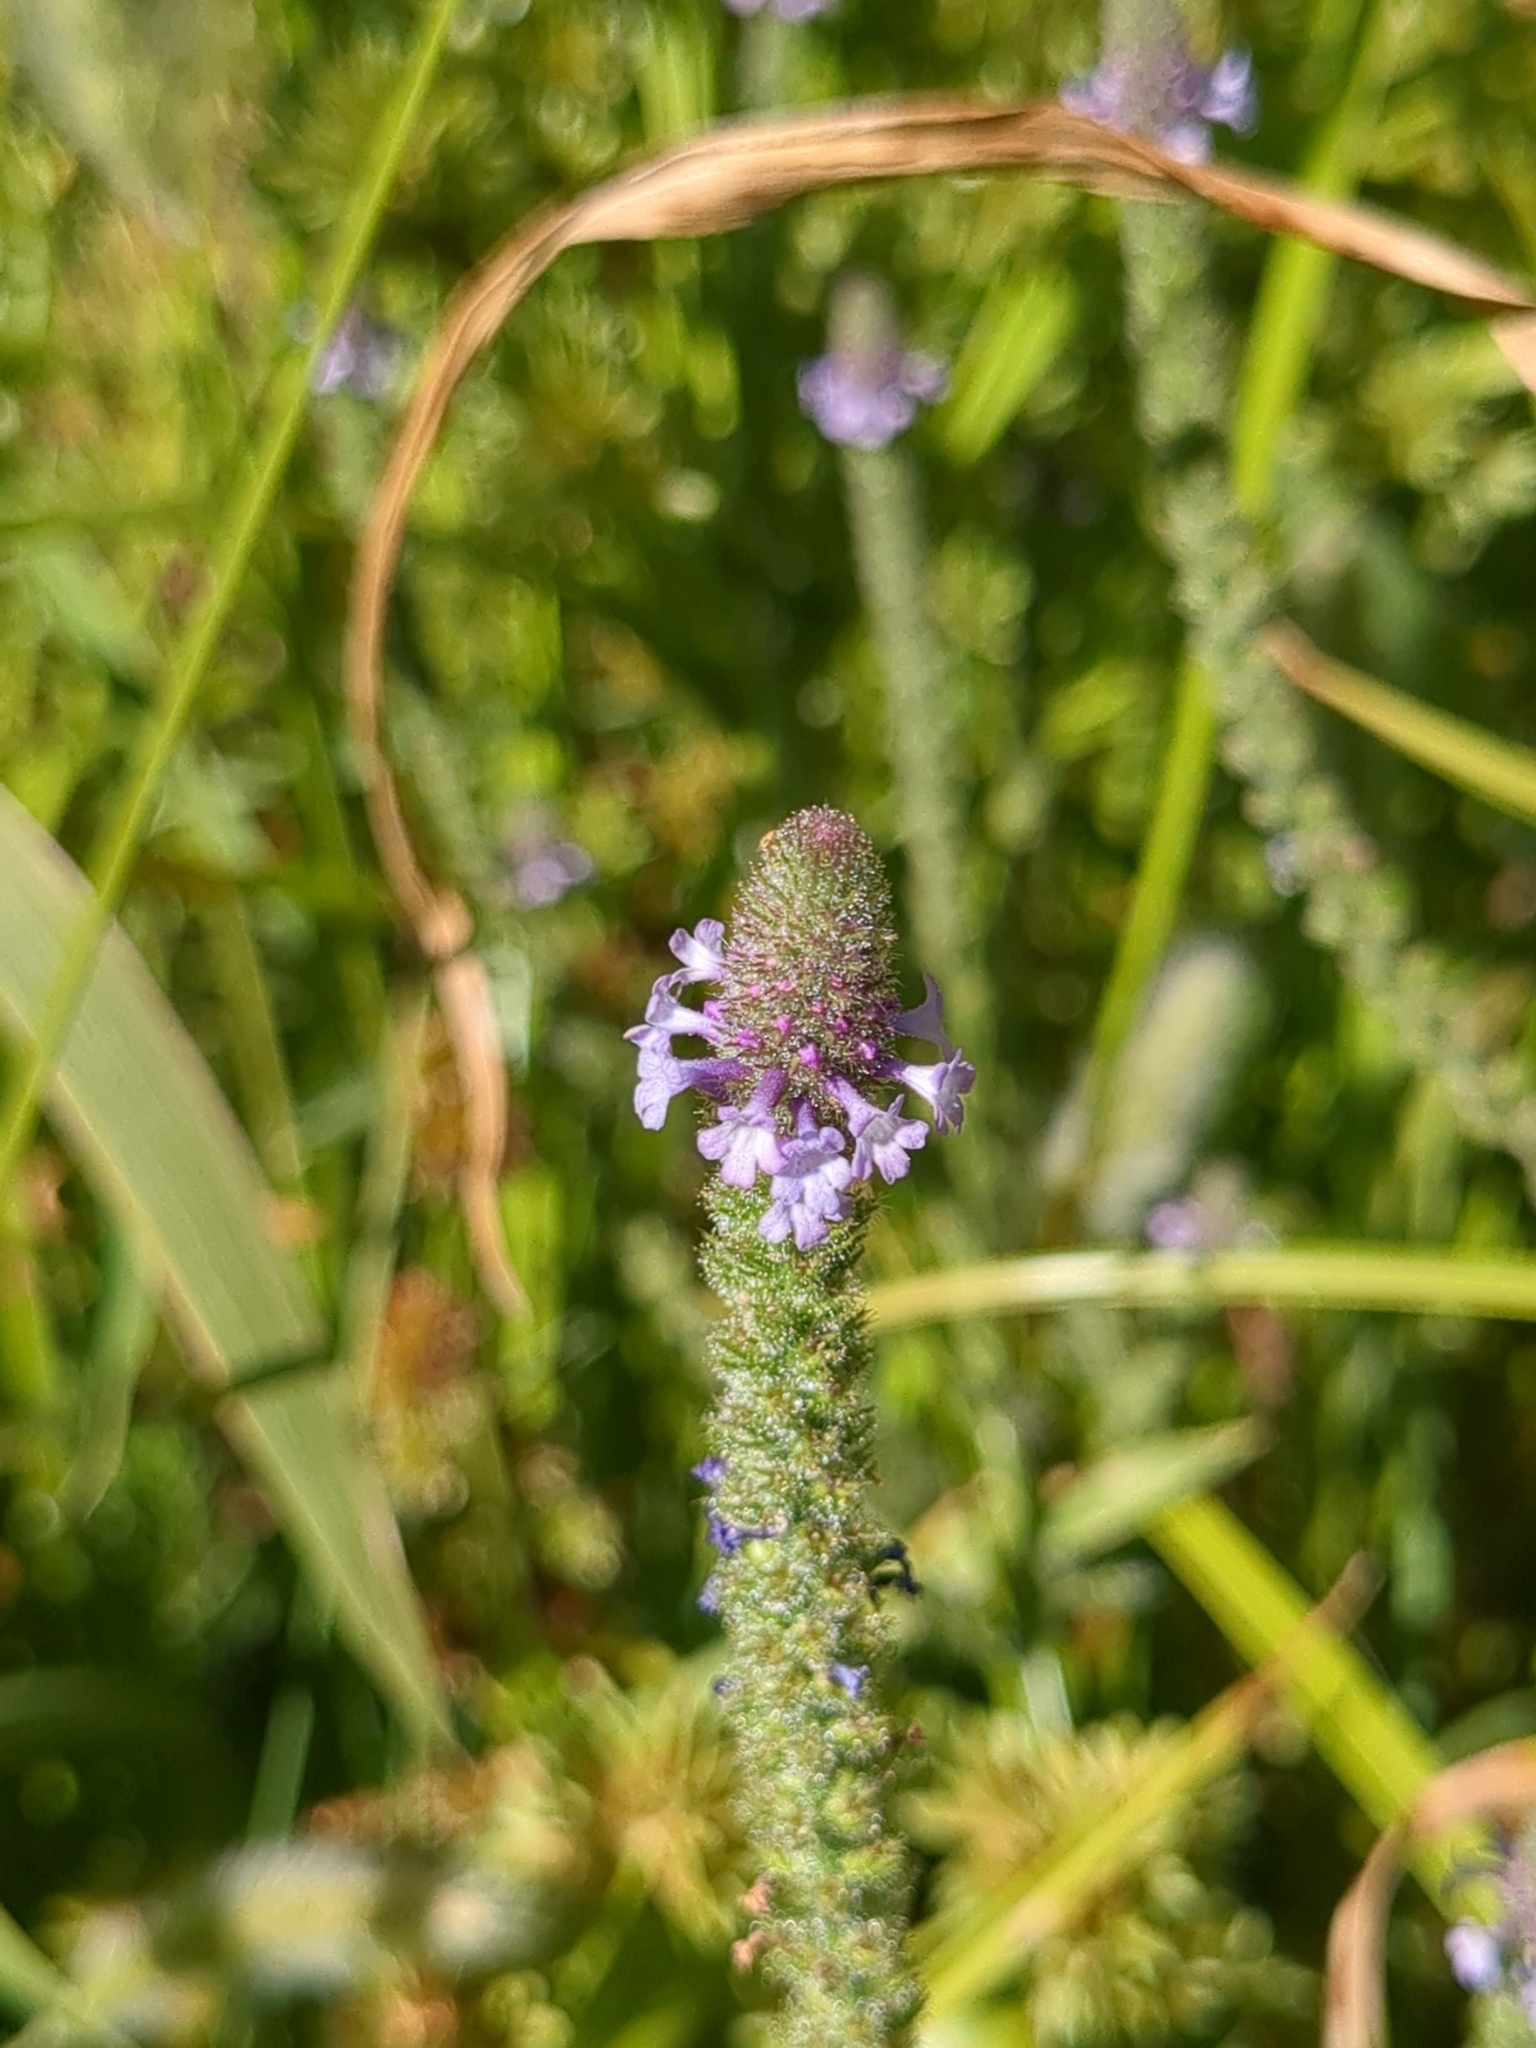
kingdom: Plantae
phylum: Tracheophyta
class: Magnoliopsida
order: Lamiales
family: Verbenaceae
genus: Verbena
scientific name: Verbena lasiostachys
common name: Vervain
